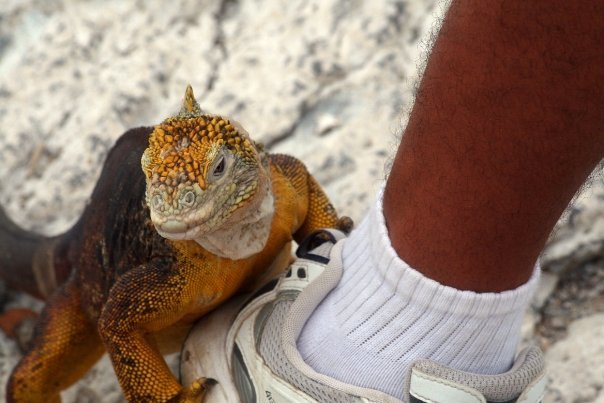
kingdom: Animalia
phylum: Chordata
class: Squamata
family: Iguanidae
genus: Conolophus
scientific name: Conolophus subcristatus
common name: Galapagos land iguana
